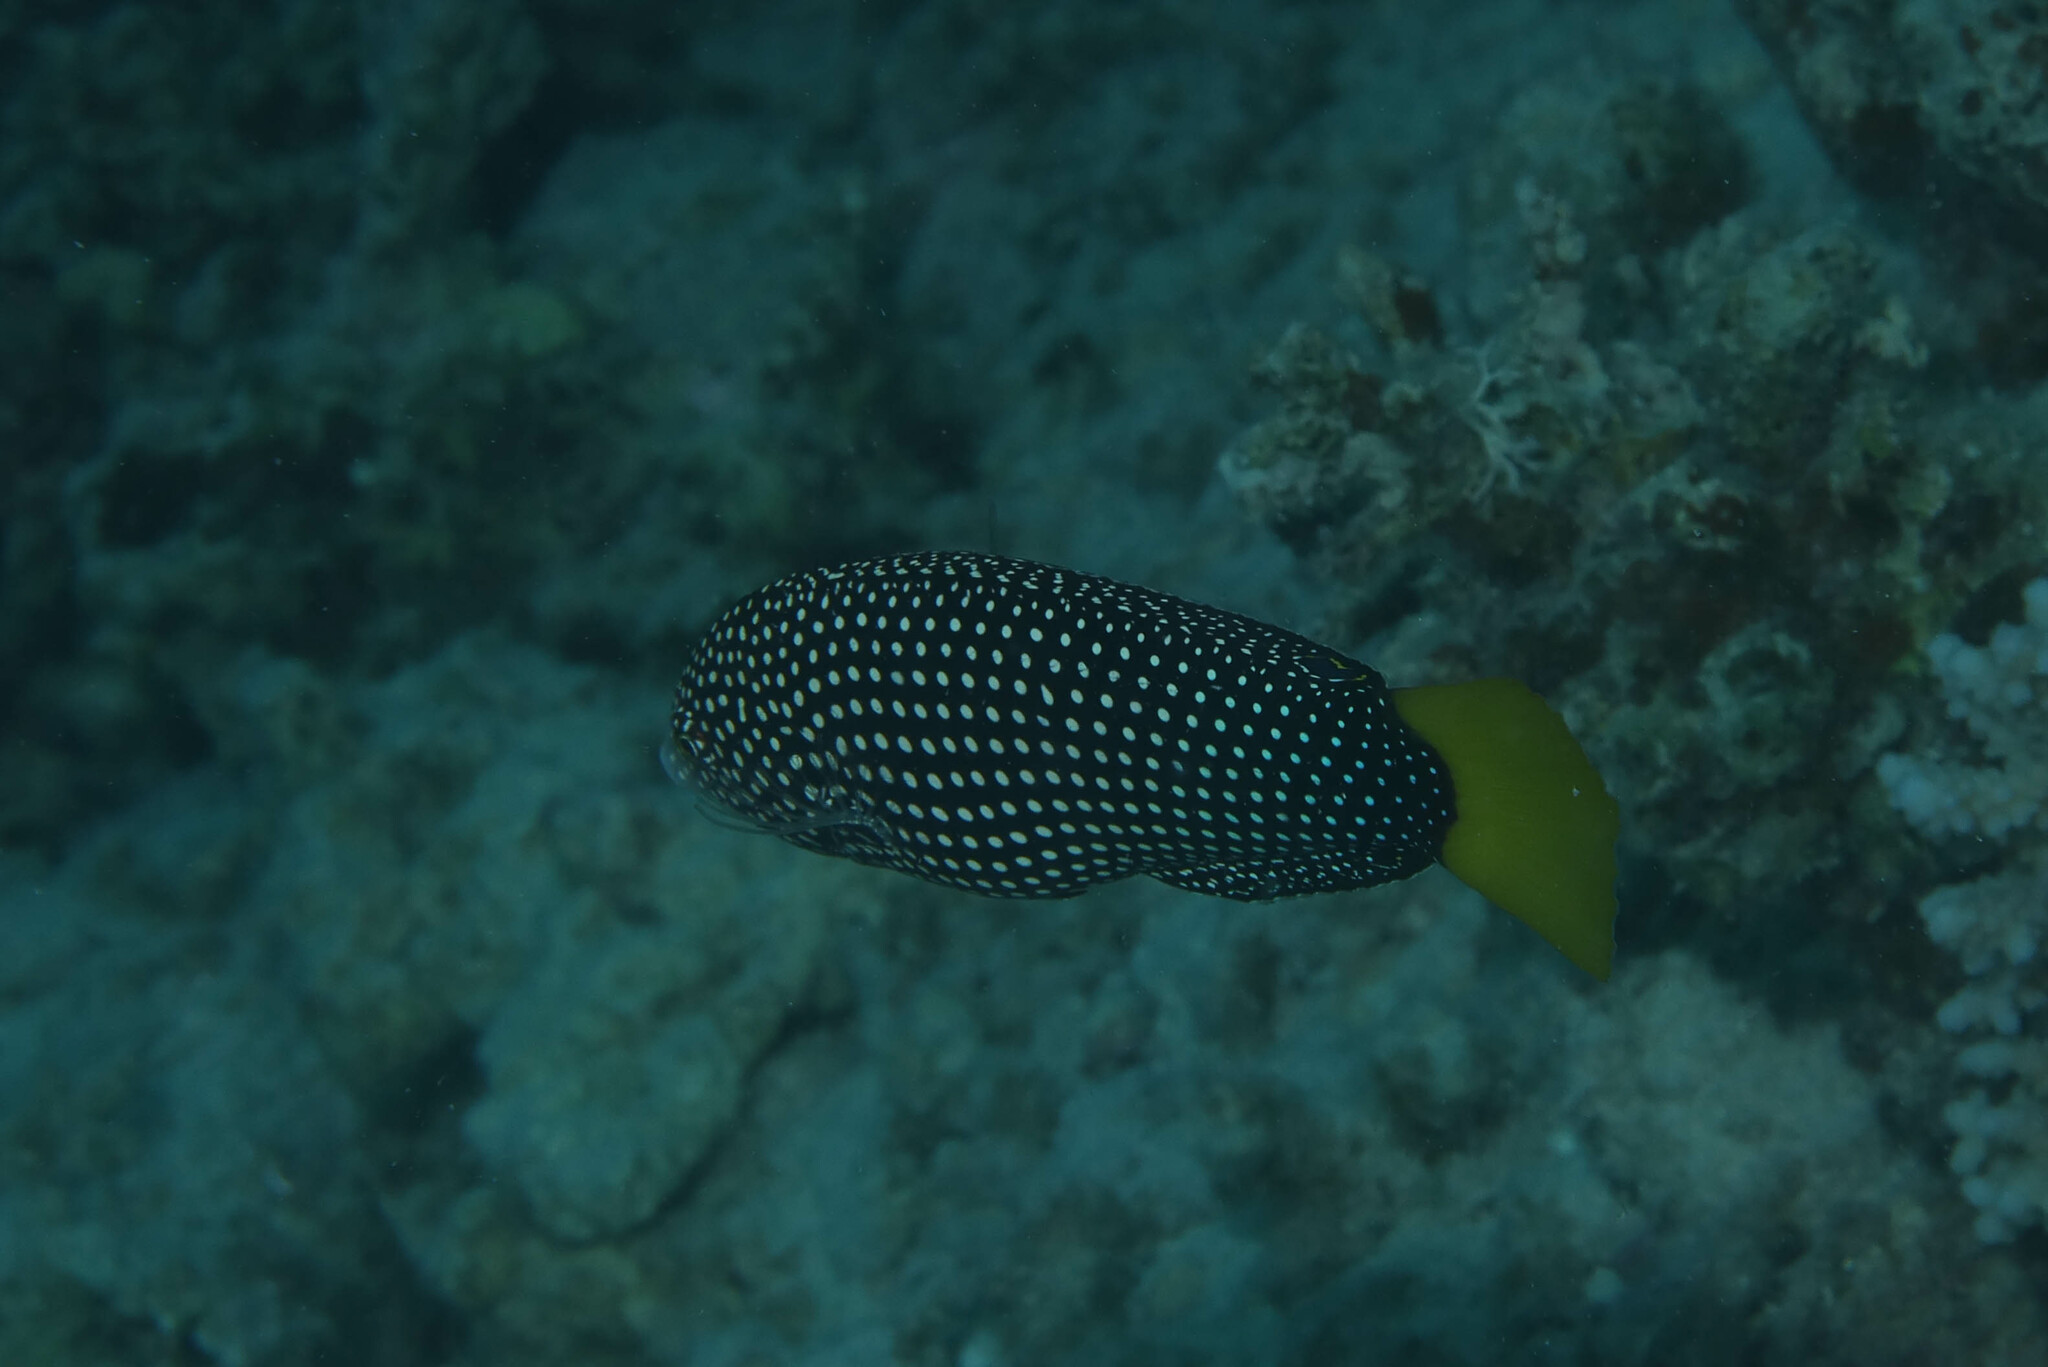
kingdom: Animalia
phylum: Chordata
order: Perciformes
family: Labridae
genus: Anampses
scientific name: Anampses meleagrides
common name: Yellowtail wrasse
